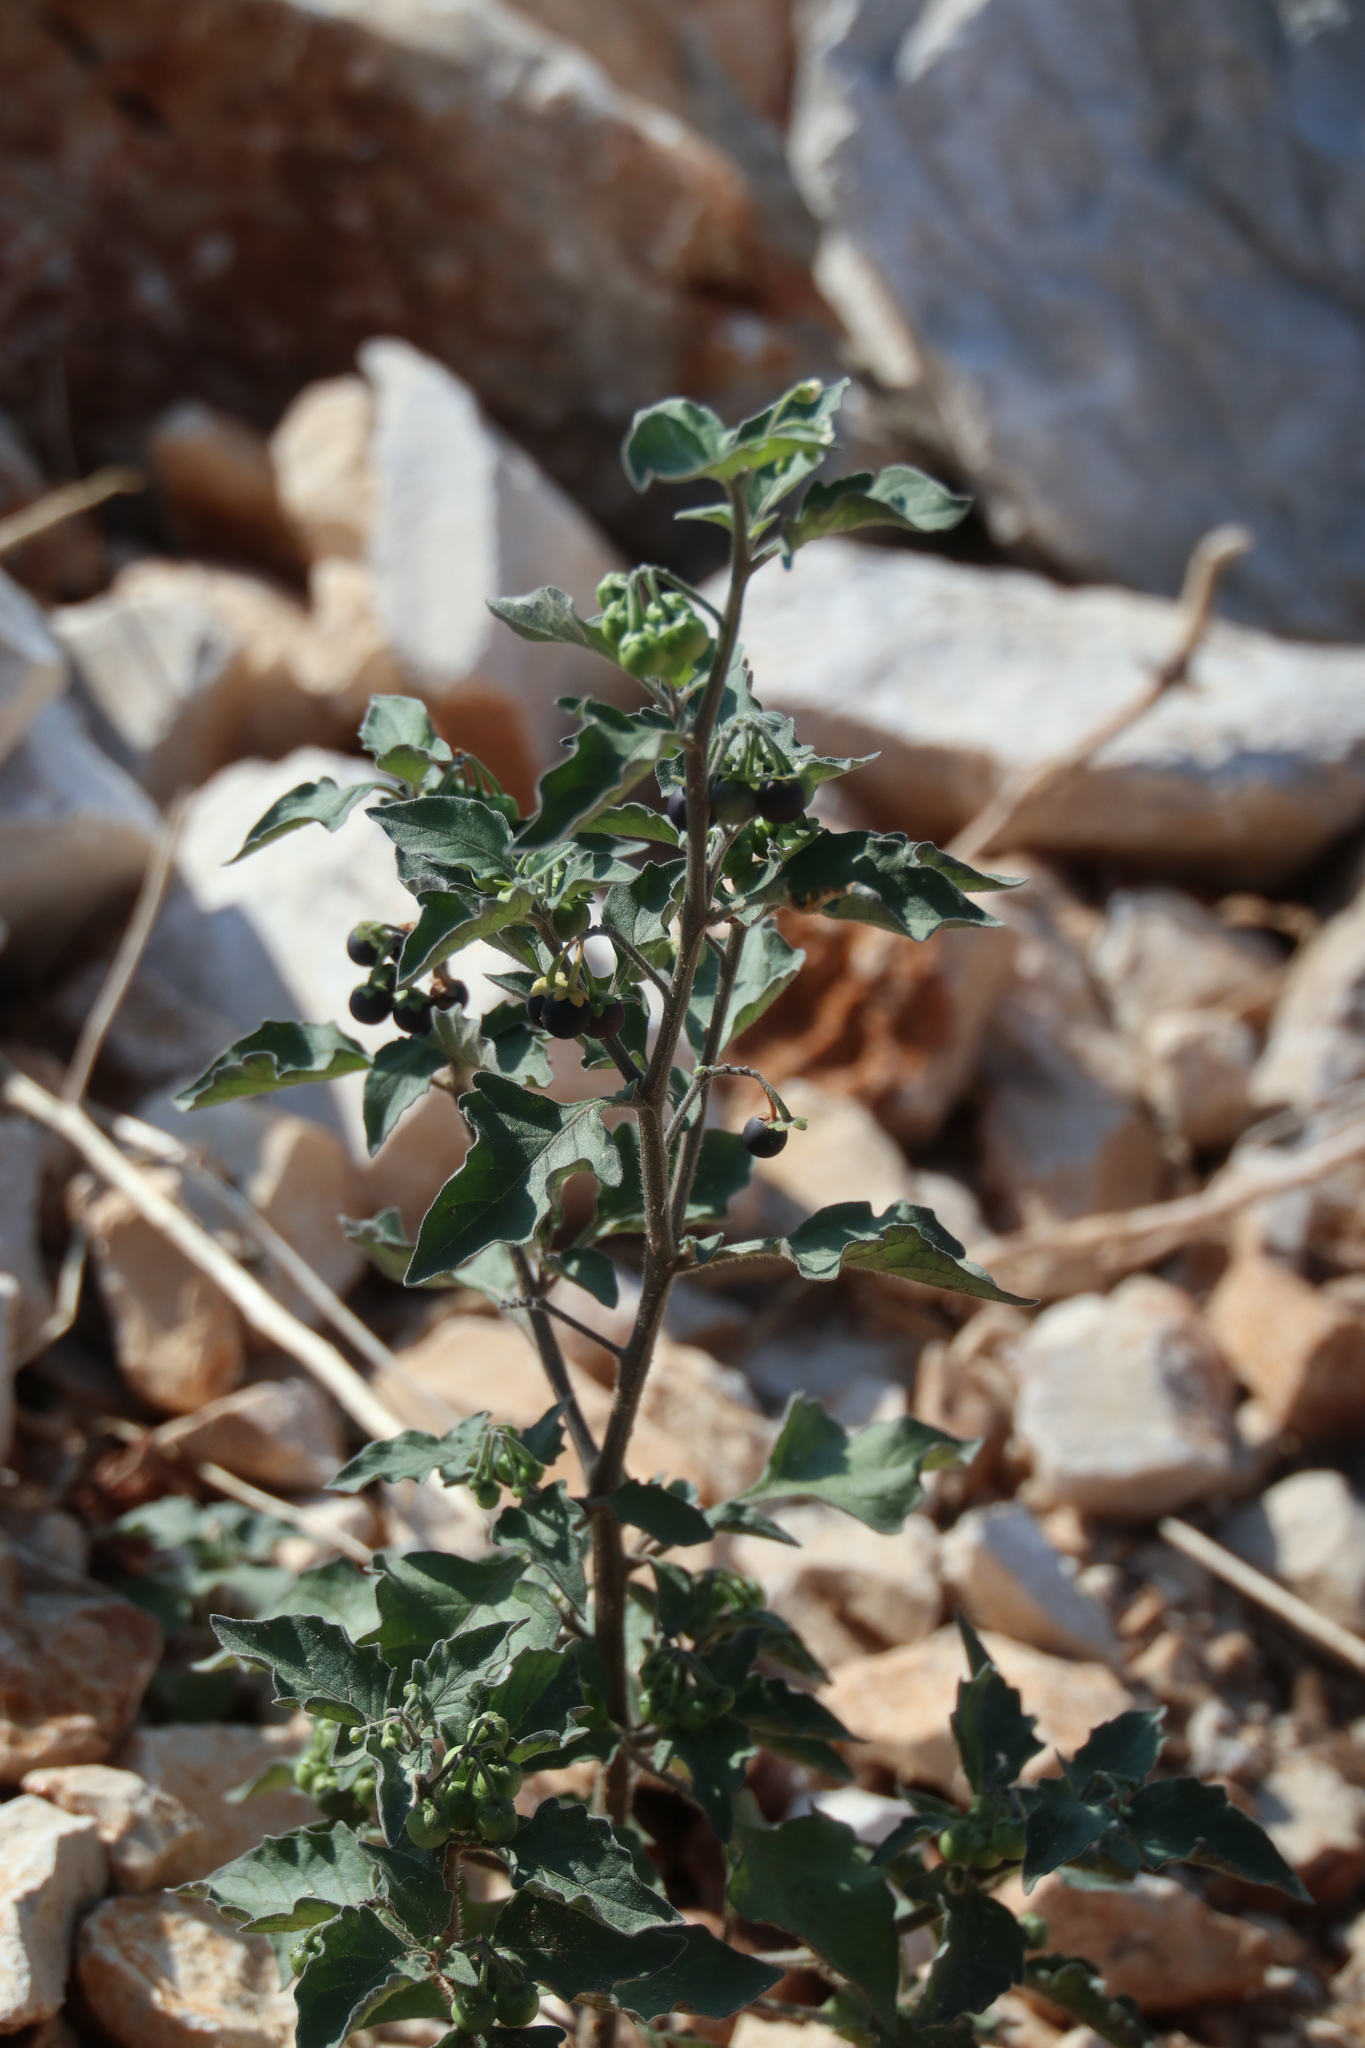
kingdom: Plantae
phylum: Tracheophyta
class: Magnoliopsida
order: Solanales
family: Solanaceae
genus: Solanum
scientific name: Solanum nigrum
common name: Black nightshade
